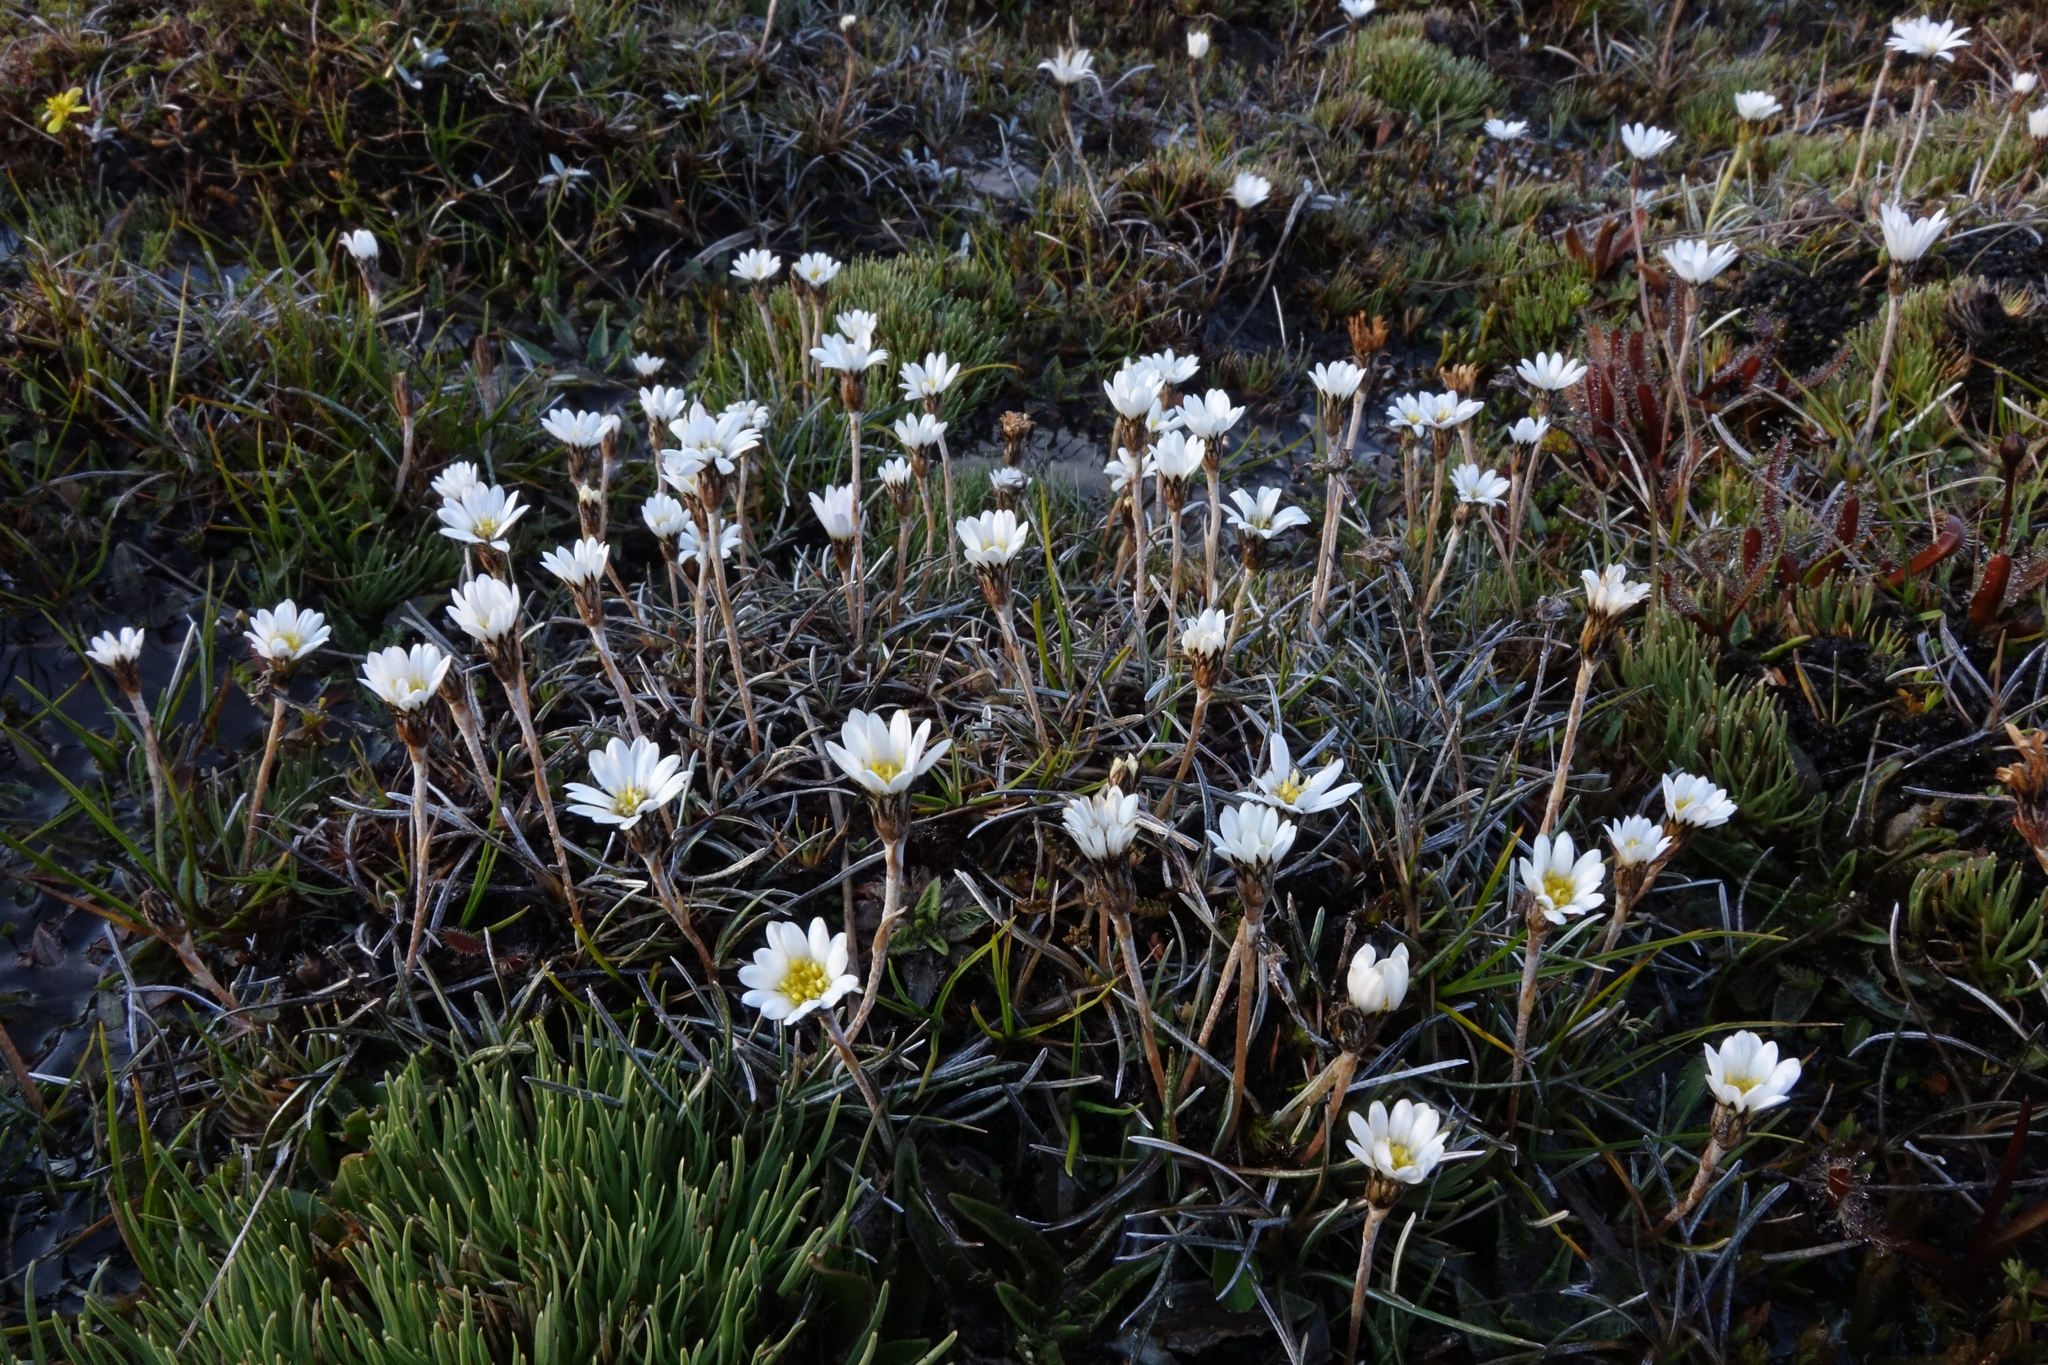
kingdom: Plantae
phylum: Tracheophyta
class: Magnoliopsida
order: Asterales
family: Asteraceae
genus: Celmisia
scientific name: Celmisia alpina
